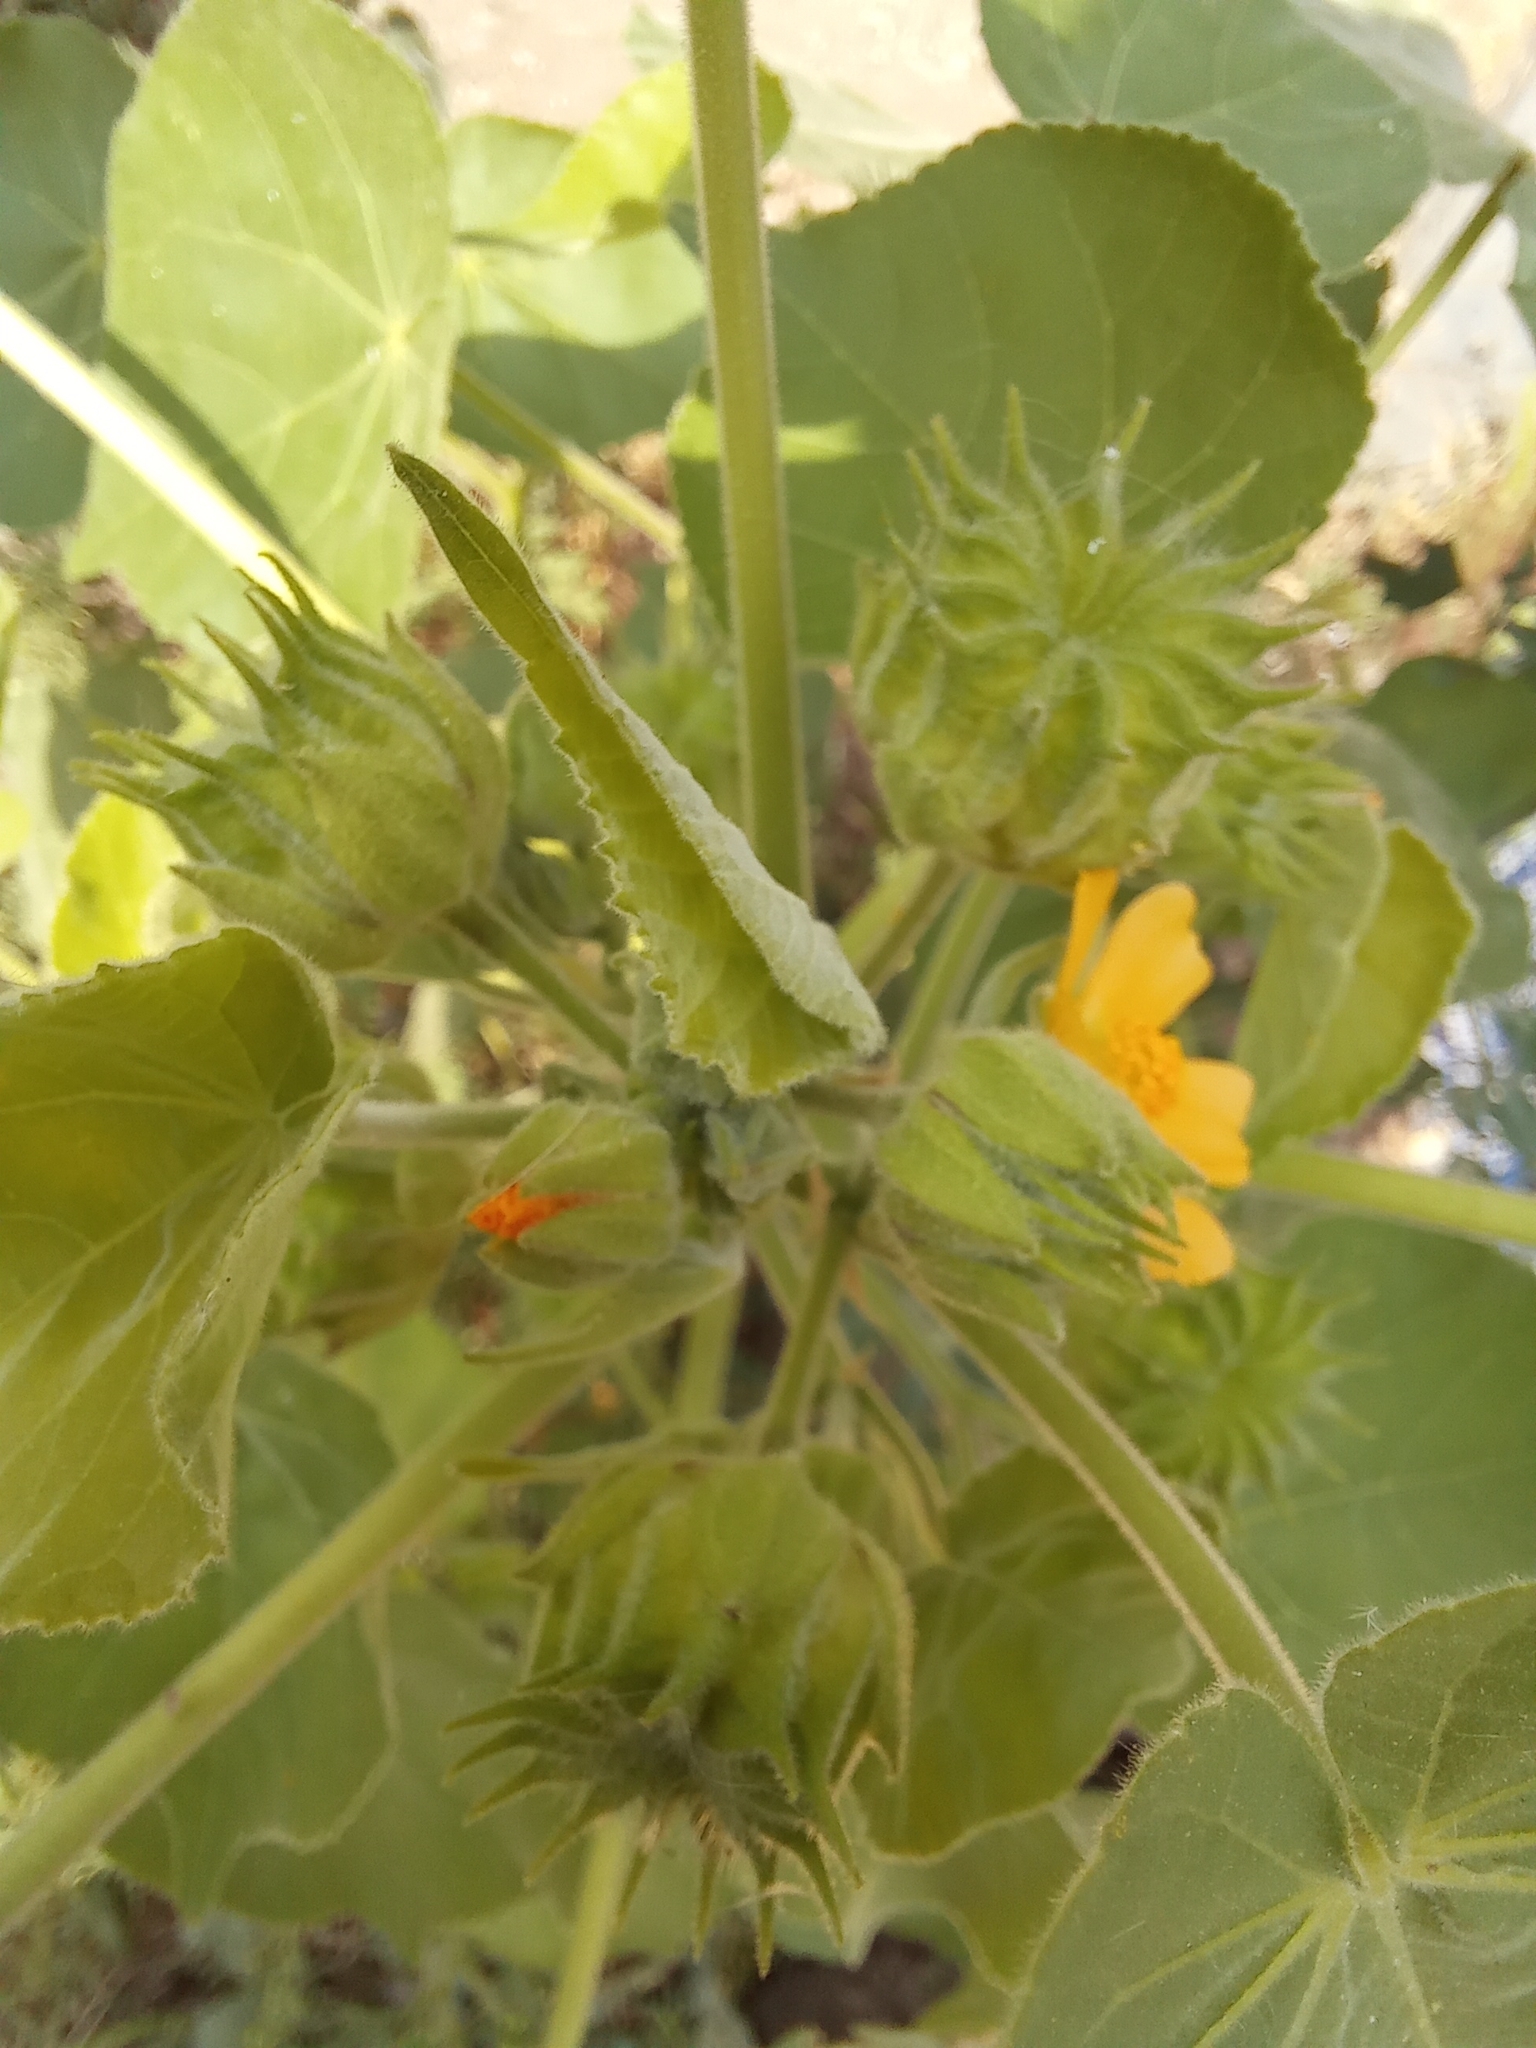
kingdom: Plantae
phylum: Tracheophyta
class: Magnoliopsida
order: Malvales
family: Malvaceae
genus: Abutilon
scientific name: Abutilon theophrasti
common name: Velvetleaf
